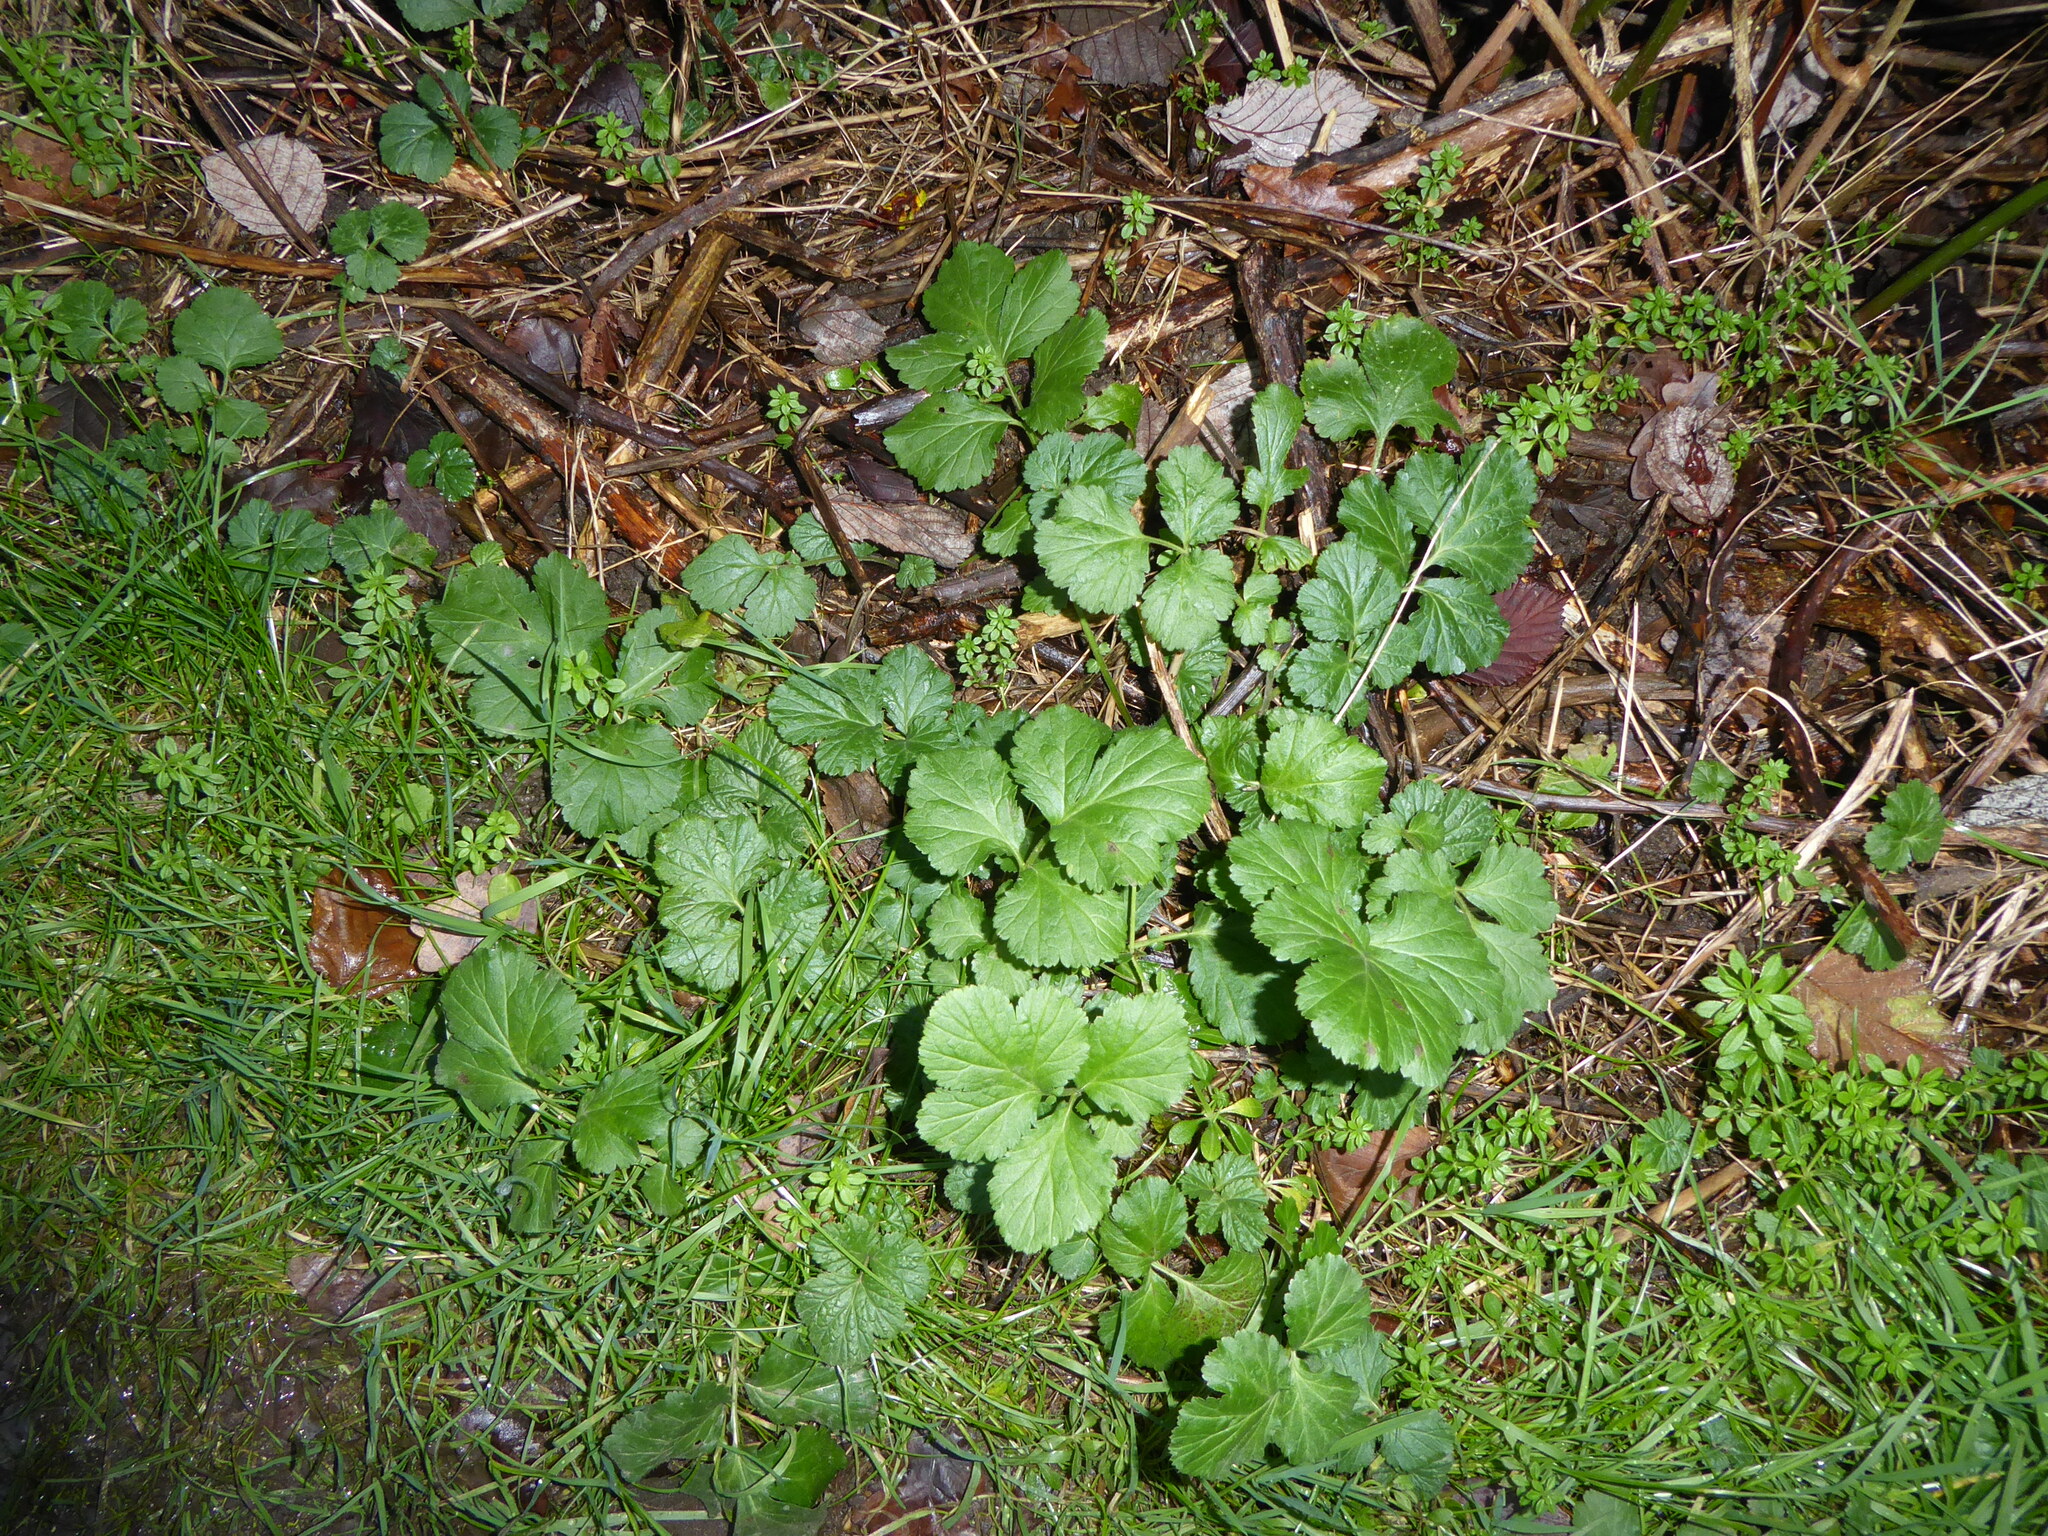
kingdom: Plantae
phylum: Tracheophyta
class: Magnoliopsida
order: Rosales
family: Rosaceae
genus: Geum
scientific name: Geum urbanum
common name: Wood avens
